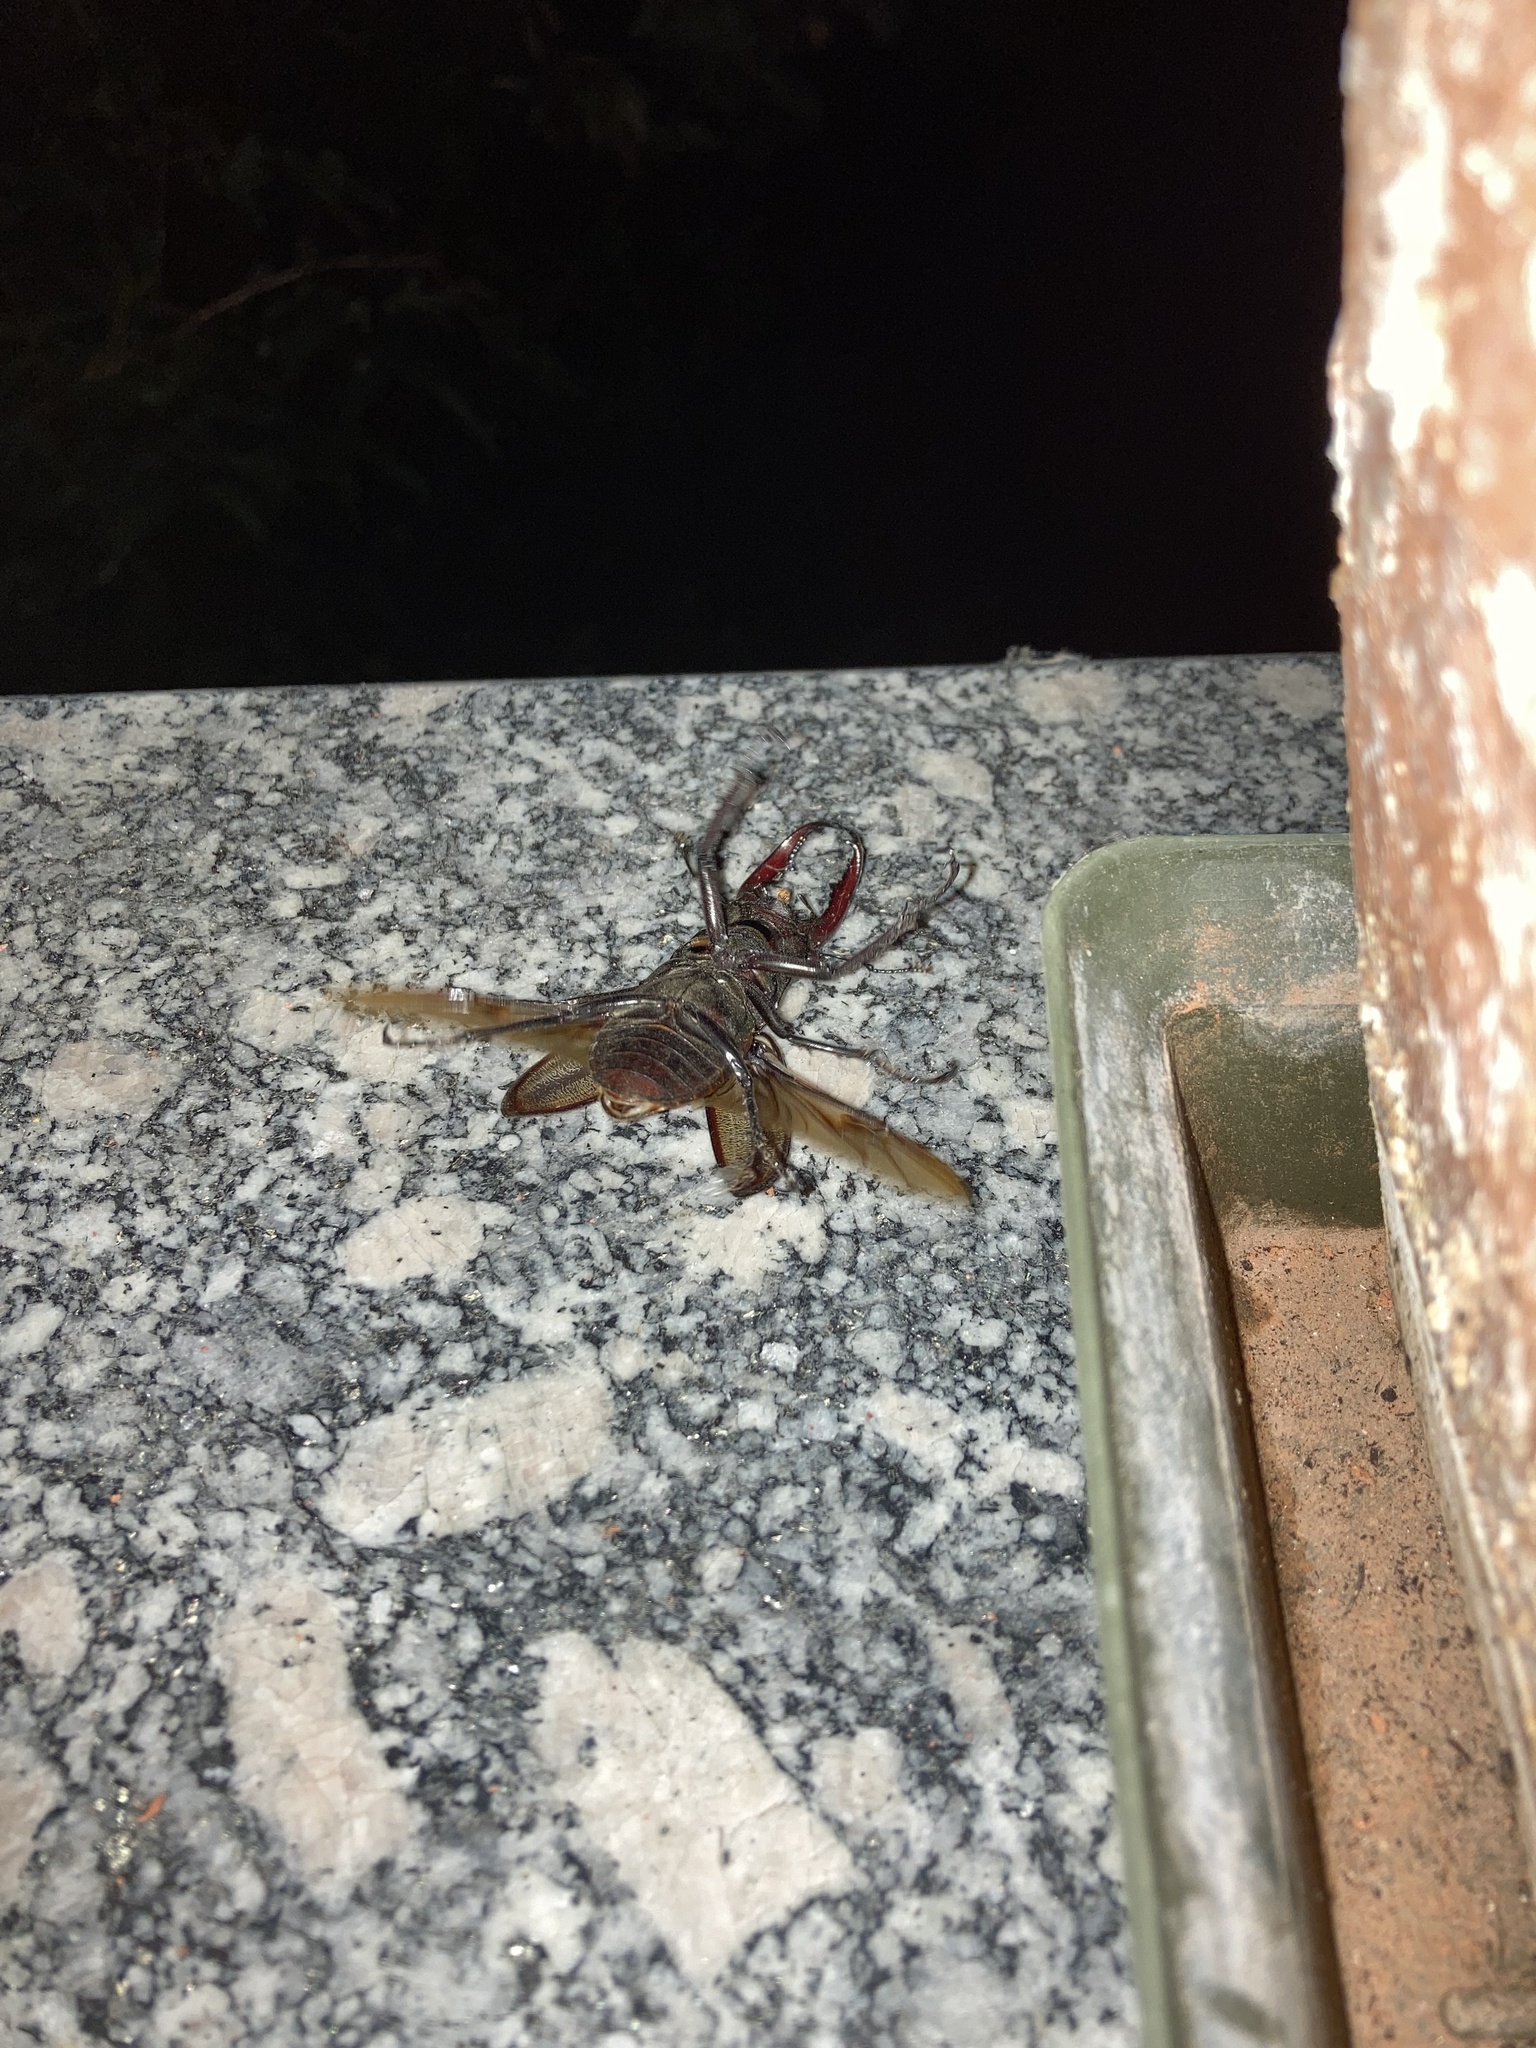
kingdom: Animalia
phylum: Arthropoda
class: Insecta
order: Coleoptera
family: Lucanidae
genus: Lucanus
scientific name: Lucanus cervus
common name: Stag beetle
